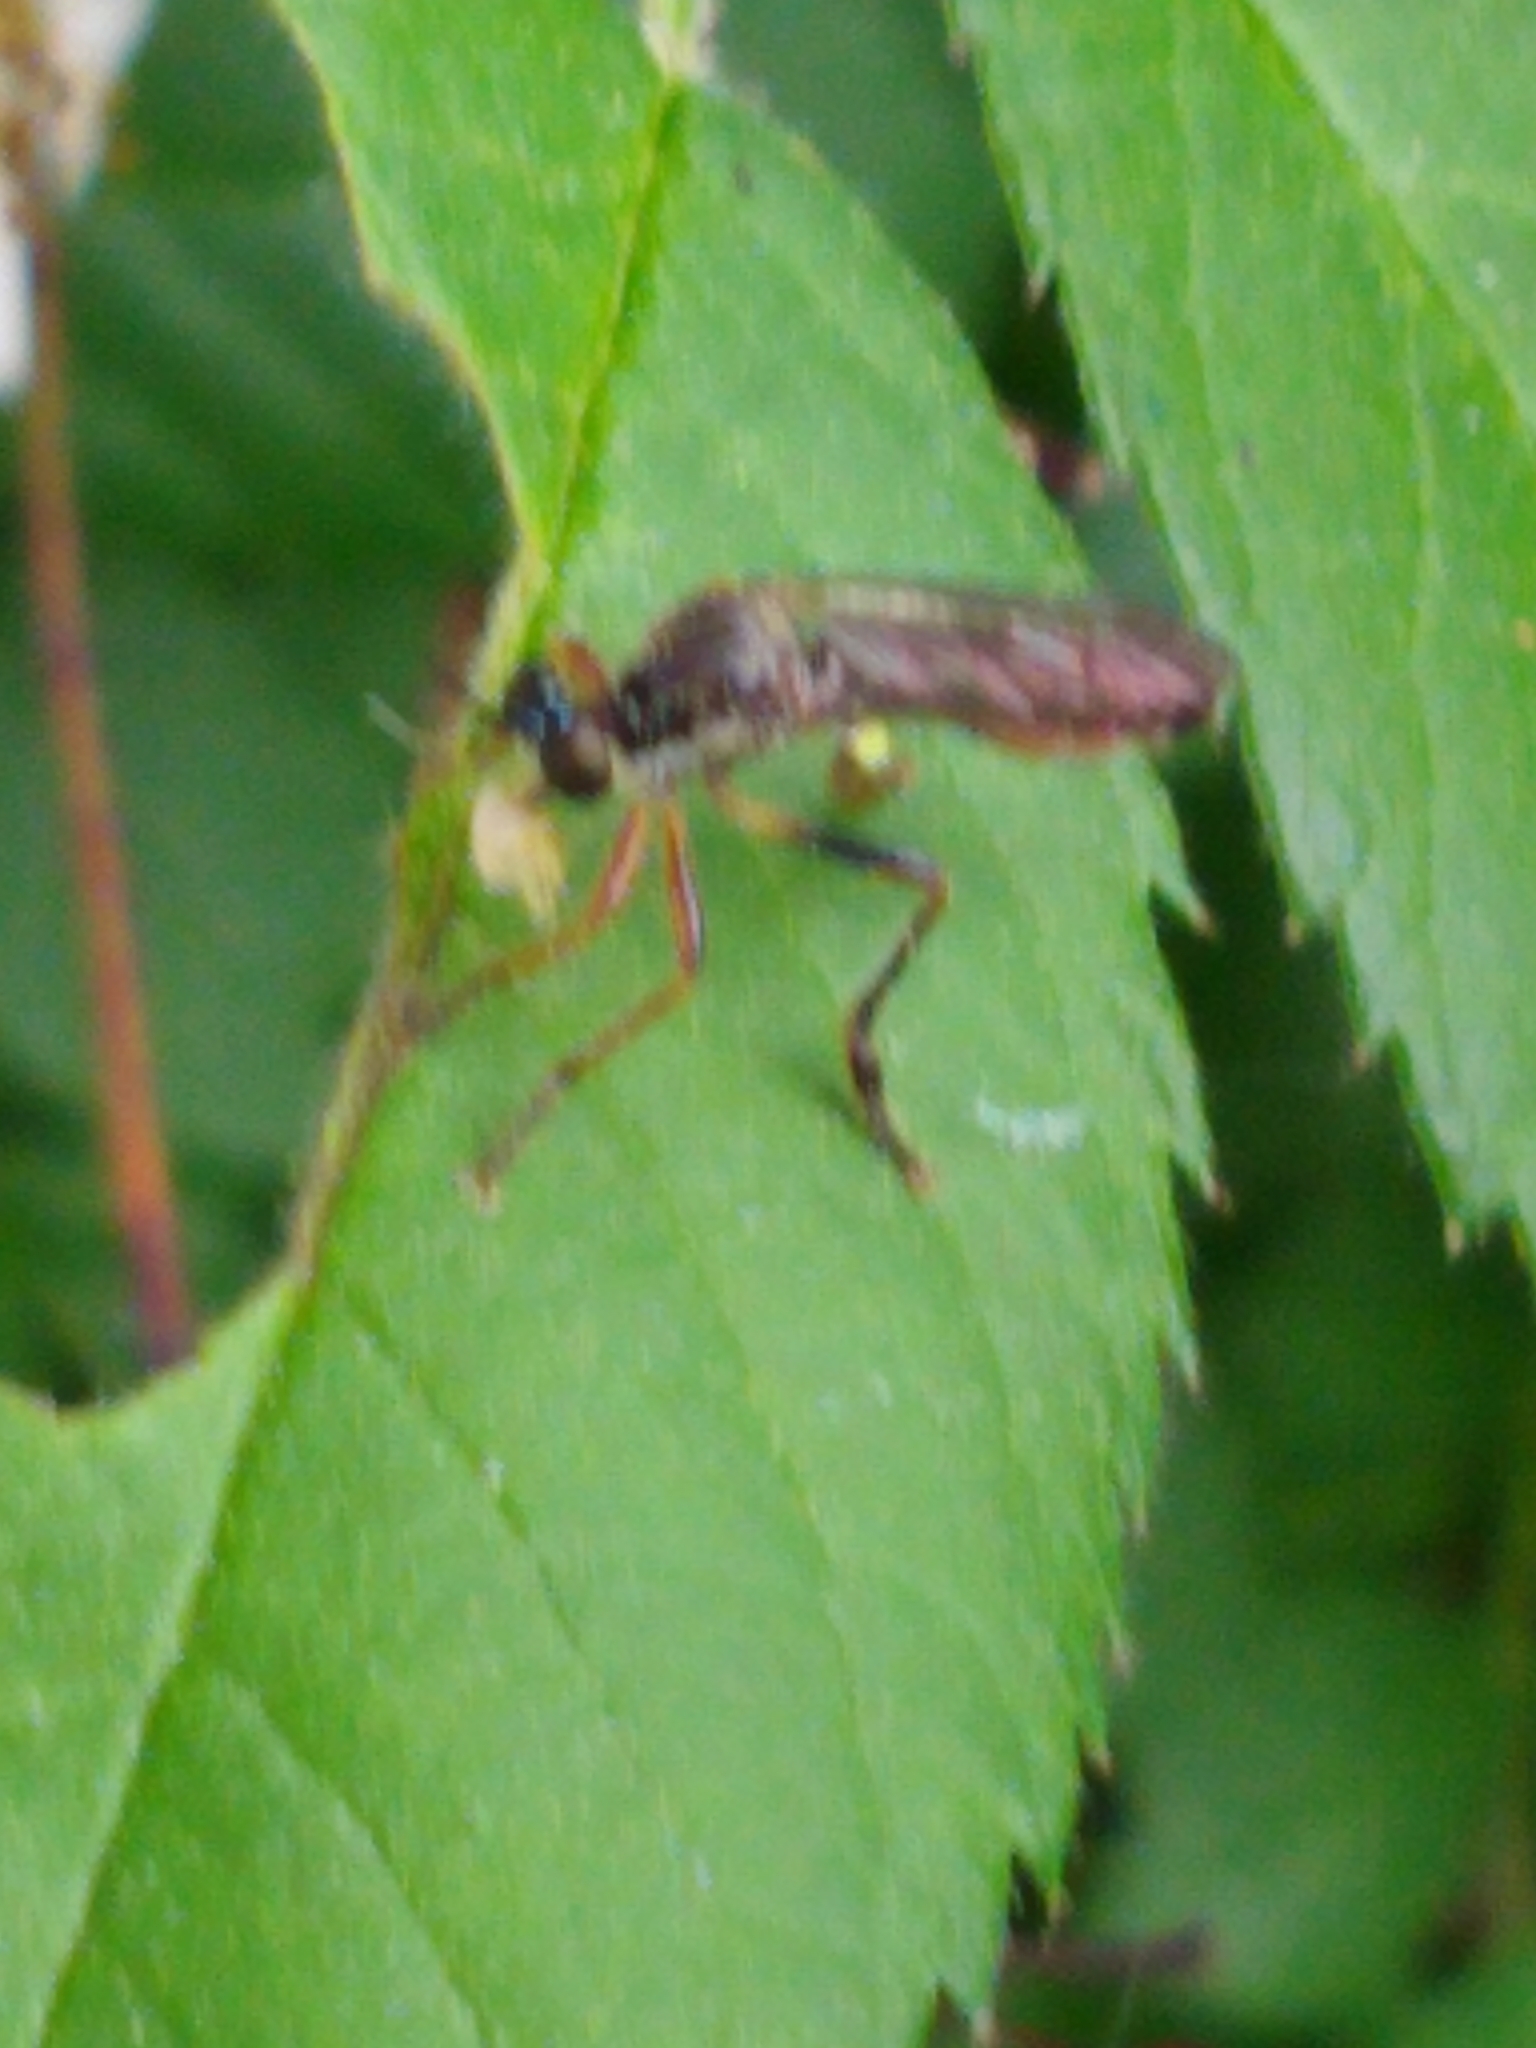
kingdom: Animalia
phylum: Arthropoda
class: Insecta
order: Diptera
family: Asilidae
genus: Dioctria
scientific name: Dioctria hyalipennis
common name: Stripe-legged robberfly
